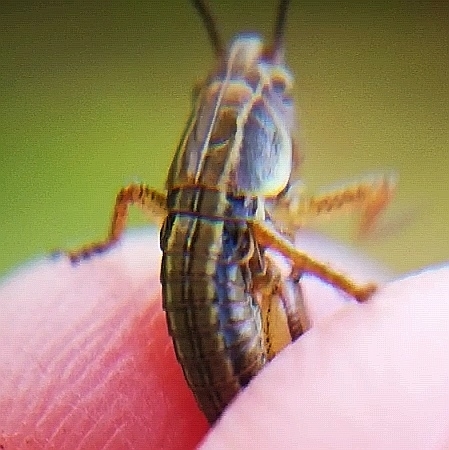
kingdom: Animalia
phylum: Arthropoda
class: Insecta
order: Orthoptera
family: Tettigoniidae
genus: Roeseliana
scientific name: Roeseliana roeselii
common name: Roesel's bush cricket
